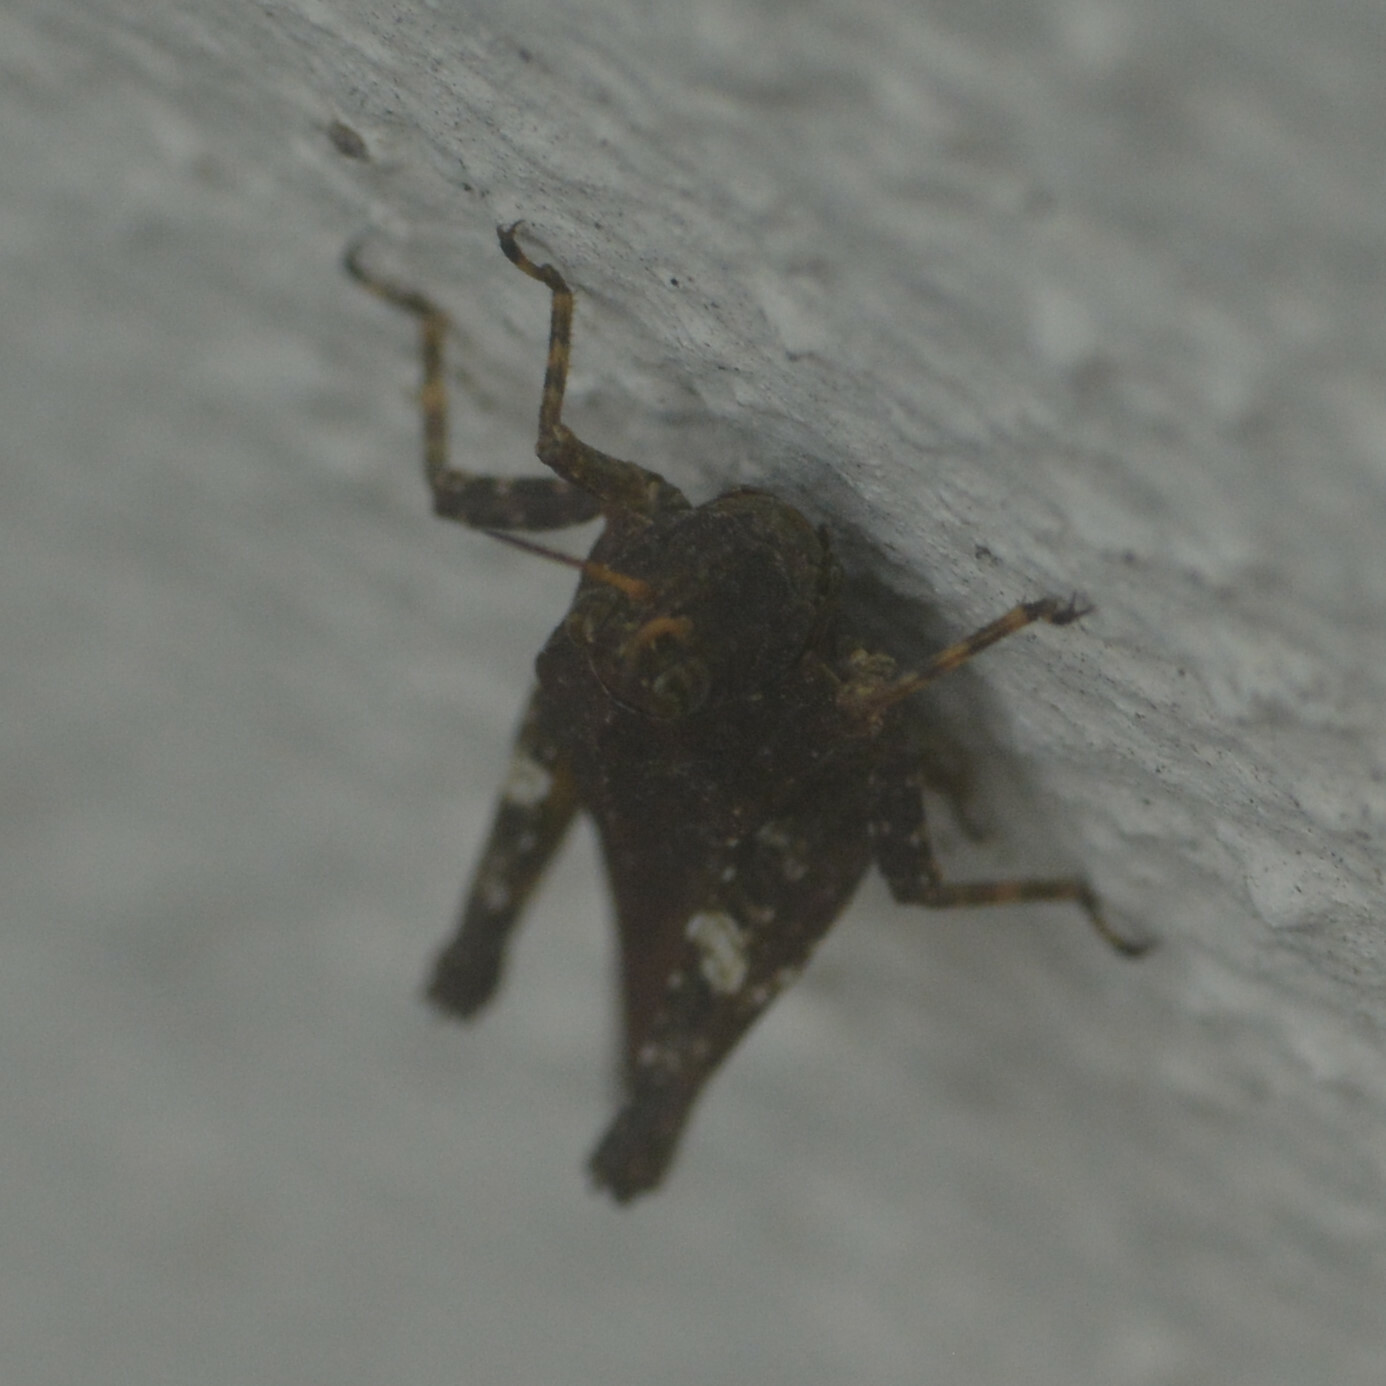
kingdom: Animalia
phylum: Arthropoda
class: Insecta
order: Orthoptera
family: Tetrigidae
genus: Tetrix
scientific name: Tetrix subulata
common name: Slender ground-hopper
